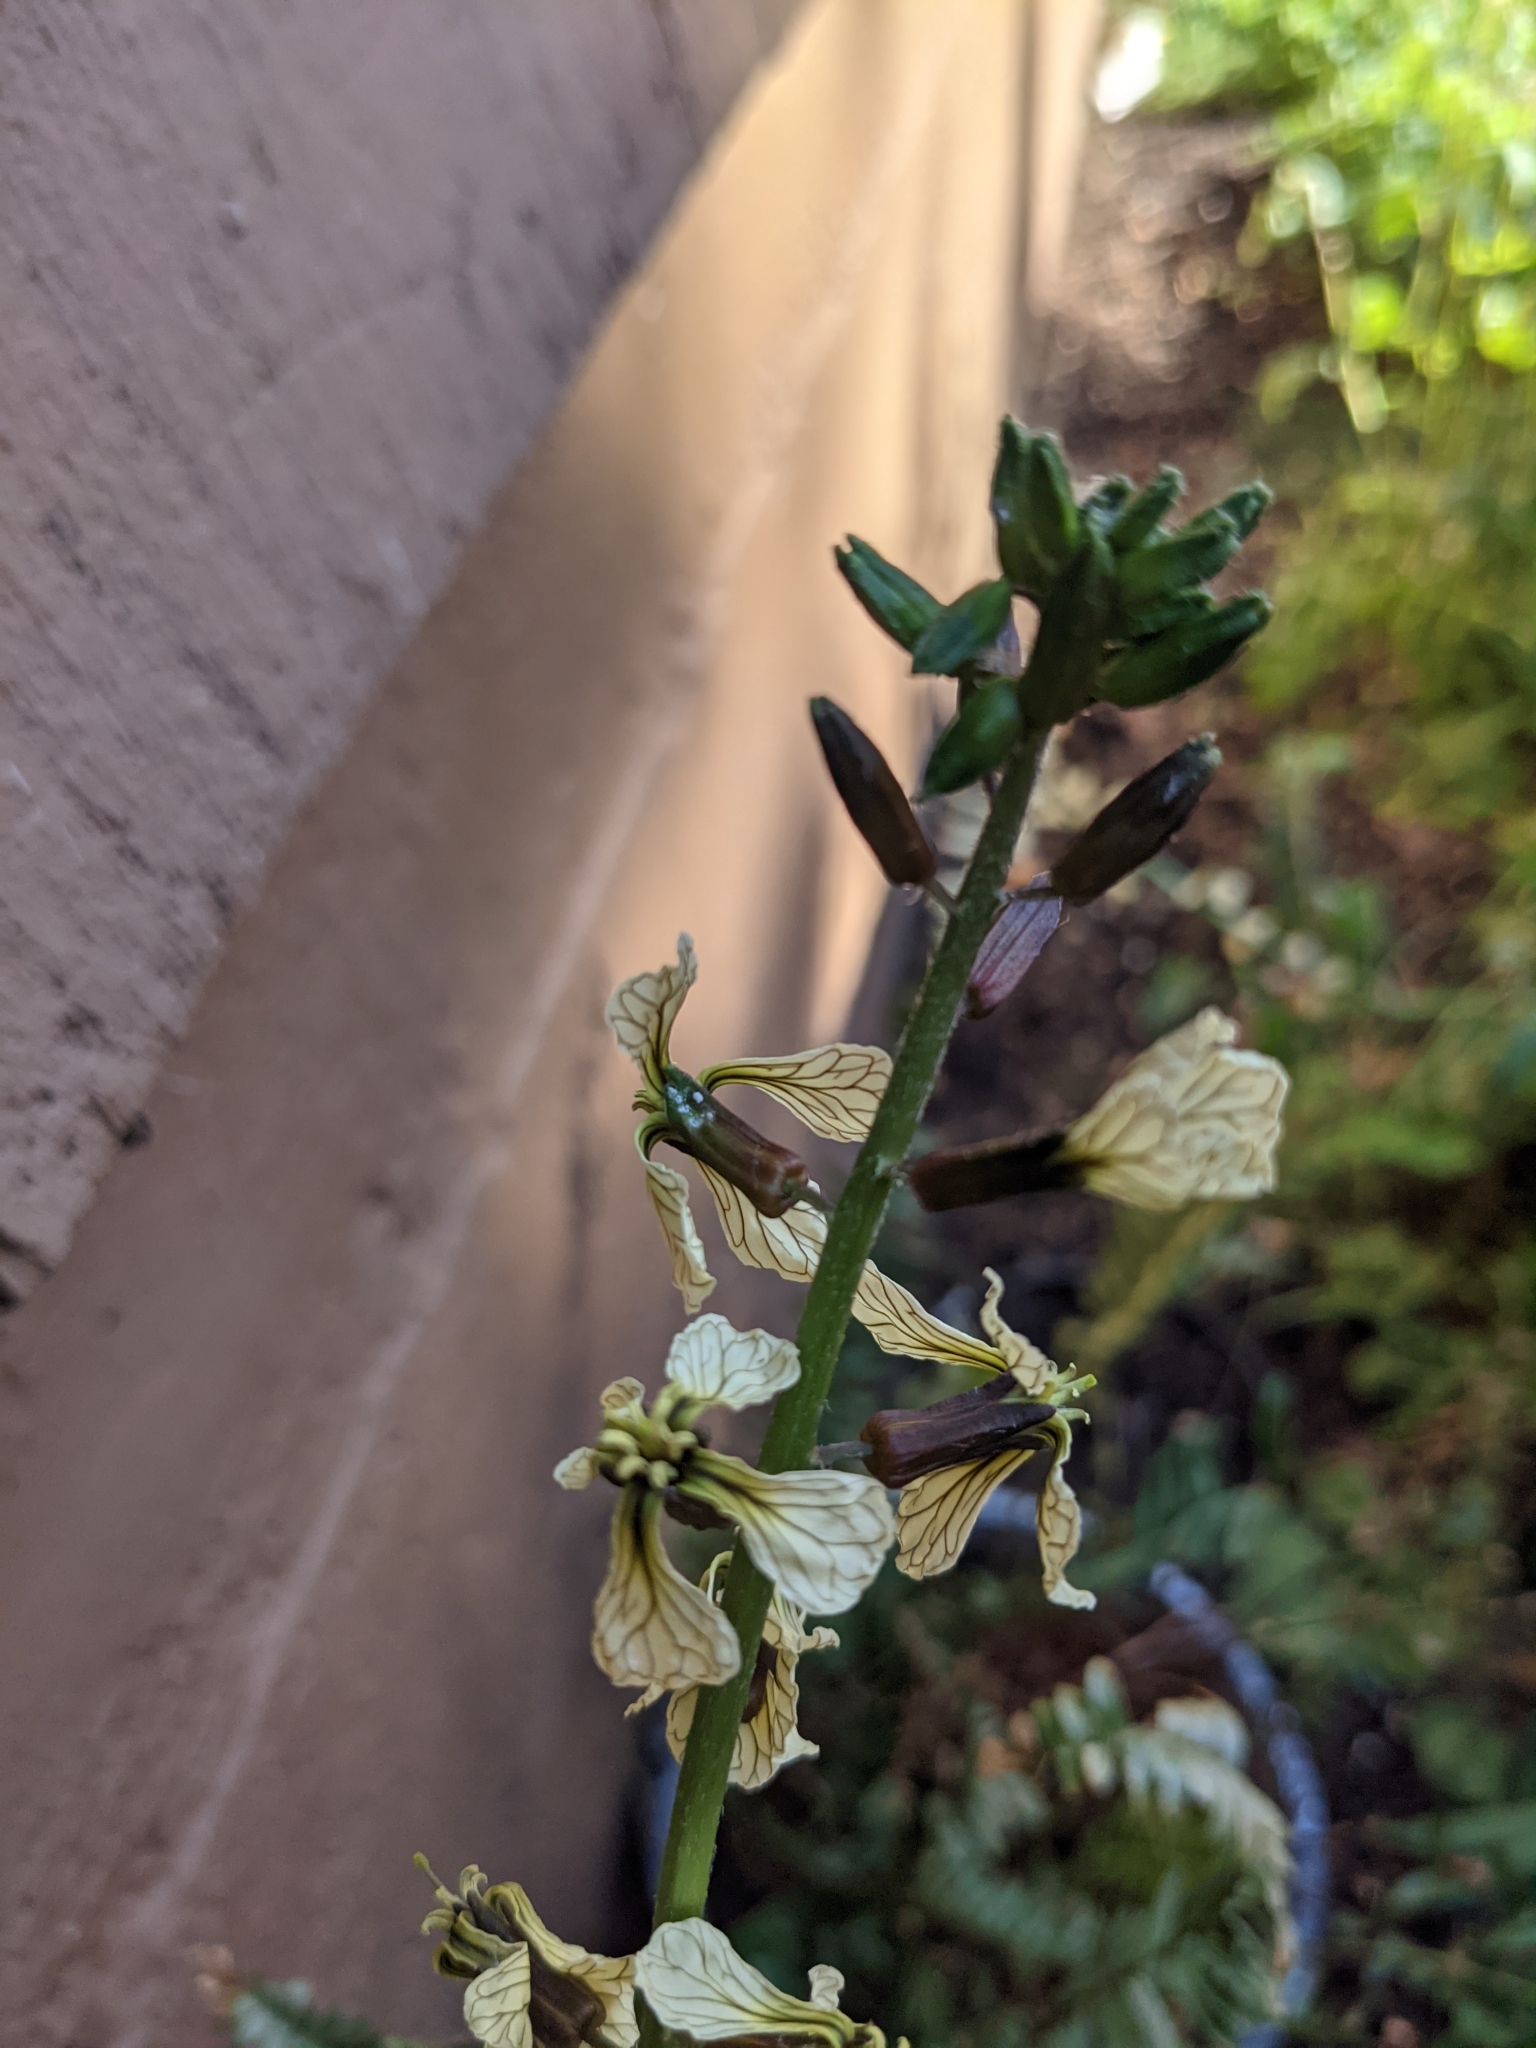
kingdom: Plantae
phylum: Tracheophyta
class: Magnoliopsida
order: Brassicales
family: Brassicaceae
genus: Eruca
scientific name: Eruca vesicaria
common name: Garden rocket
